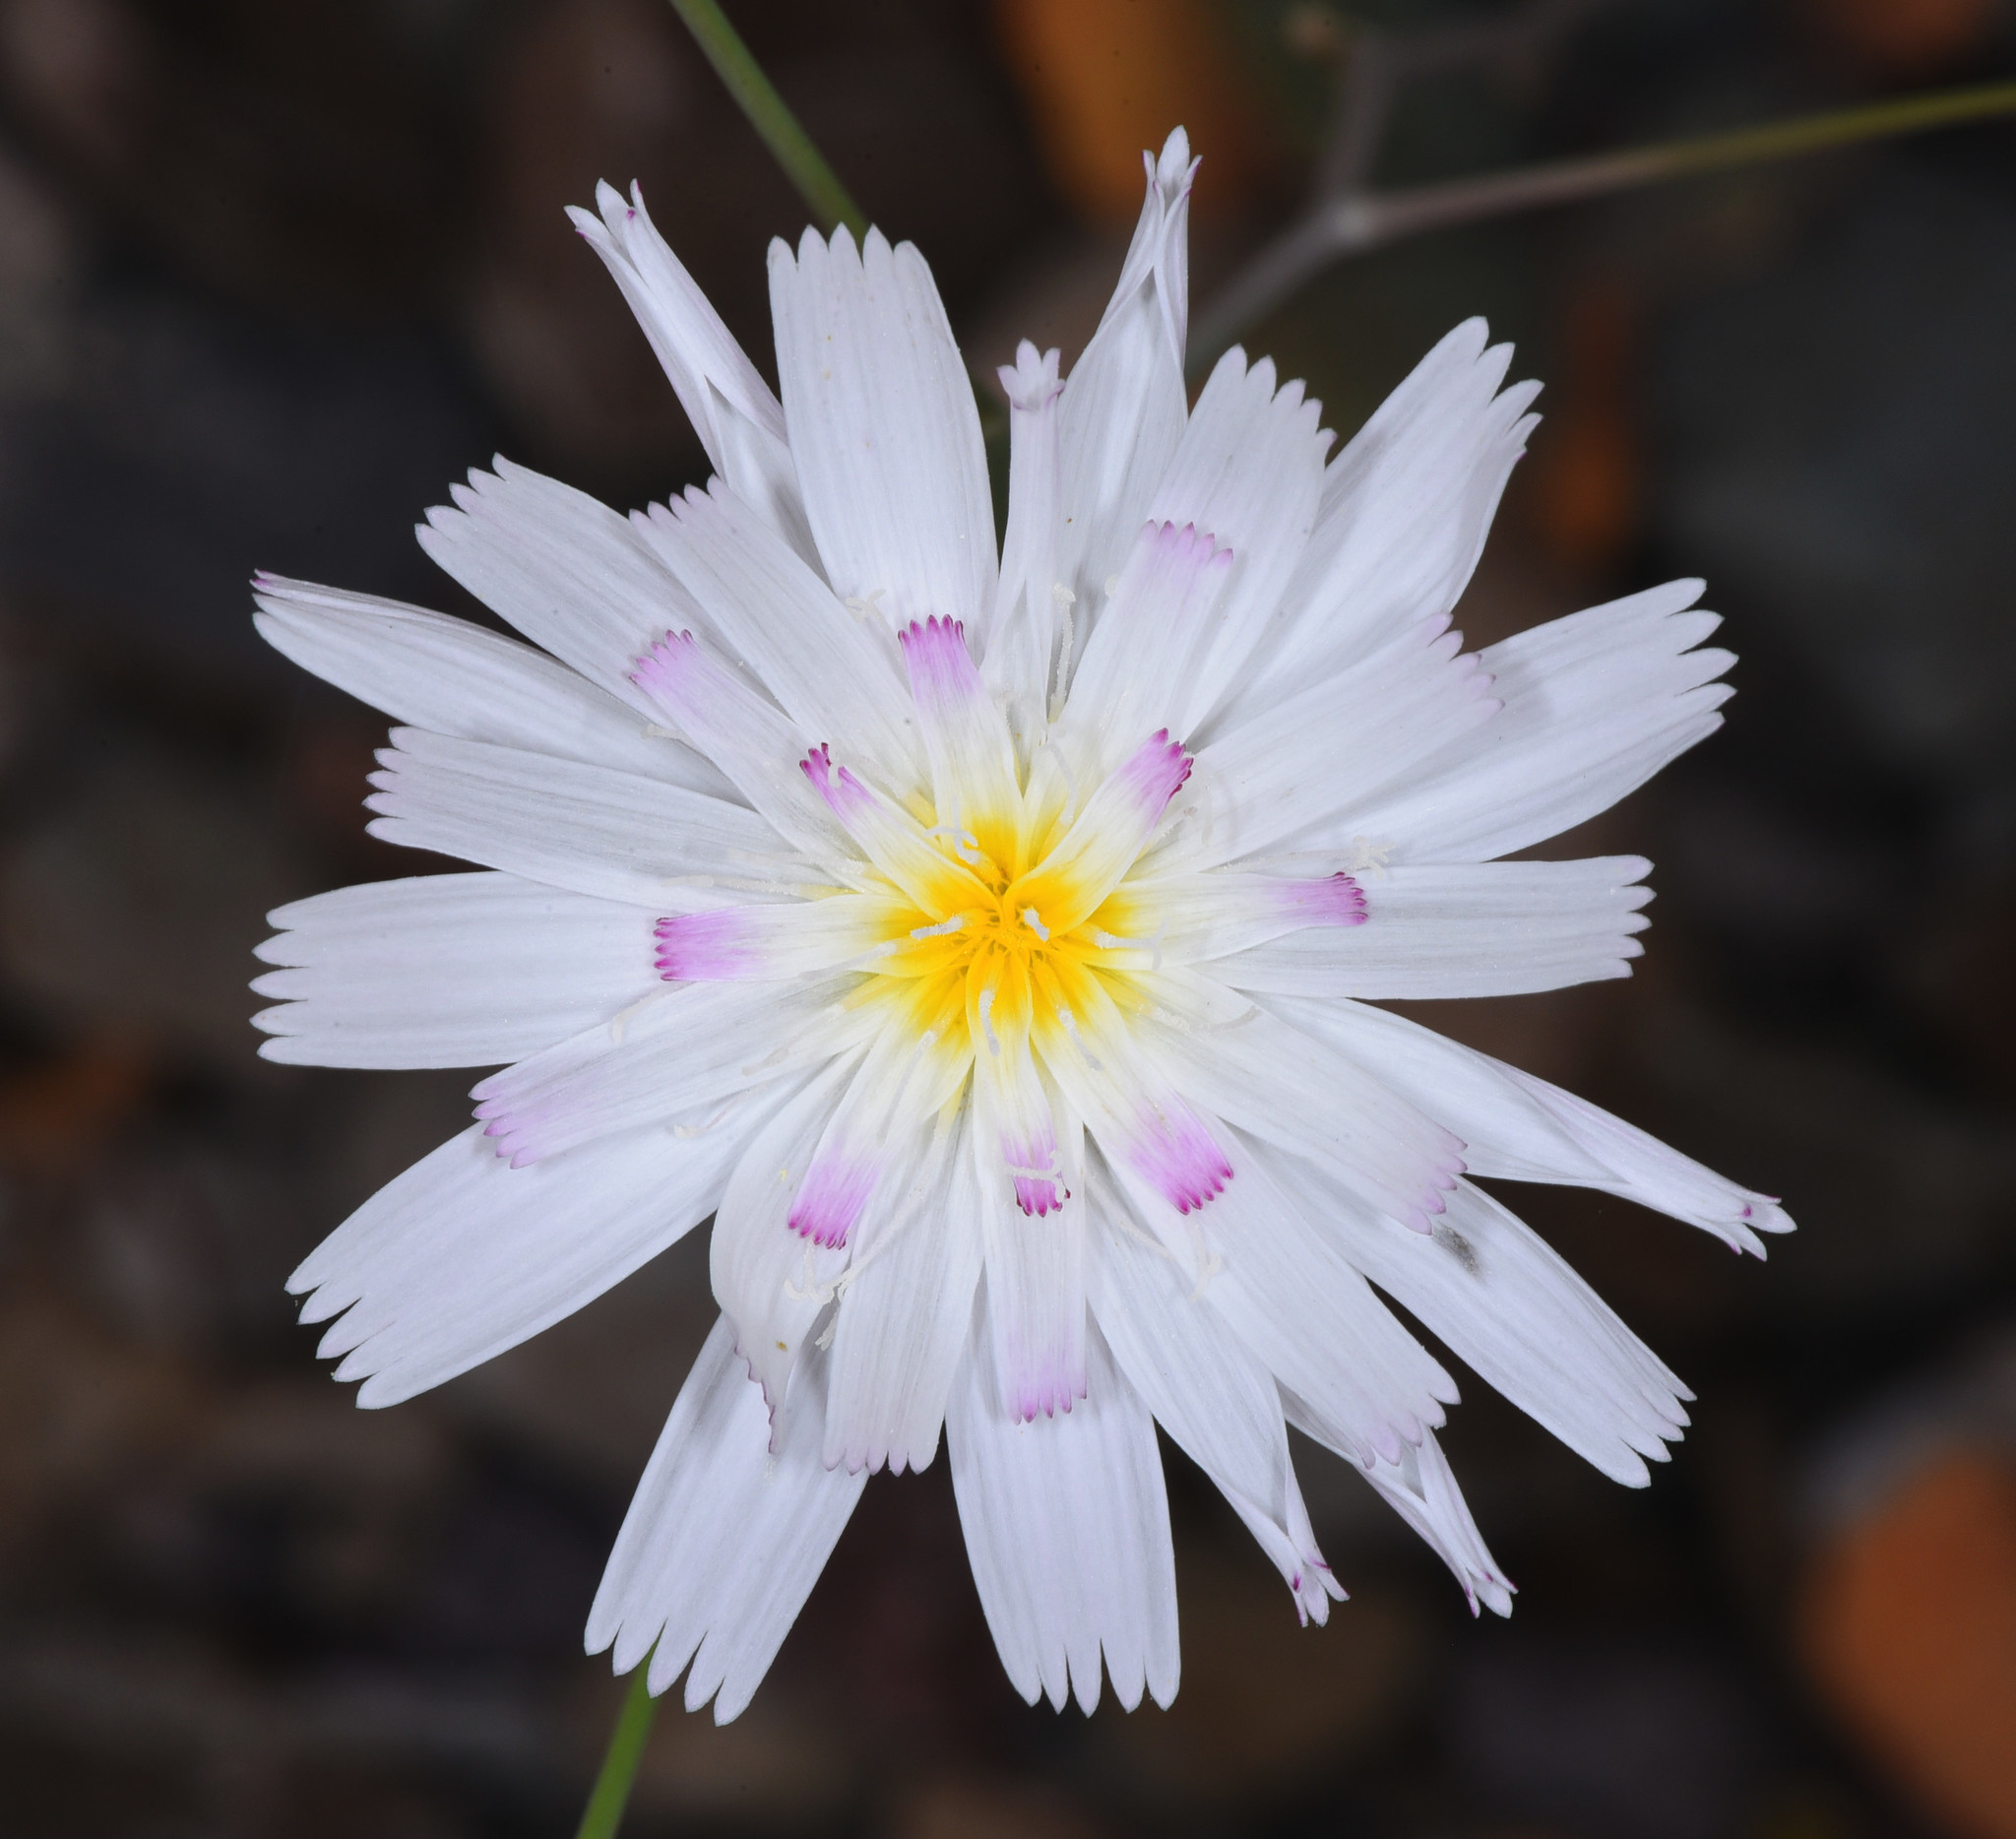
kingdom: Plantae
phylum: Tracheophyta
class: Magnoliopsida
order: Asterales
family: Asteraceae
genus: Atrichoseris
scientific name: Atrichoseris platyphylla
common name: Tobaccoweed
